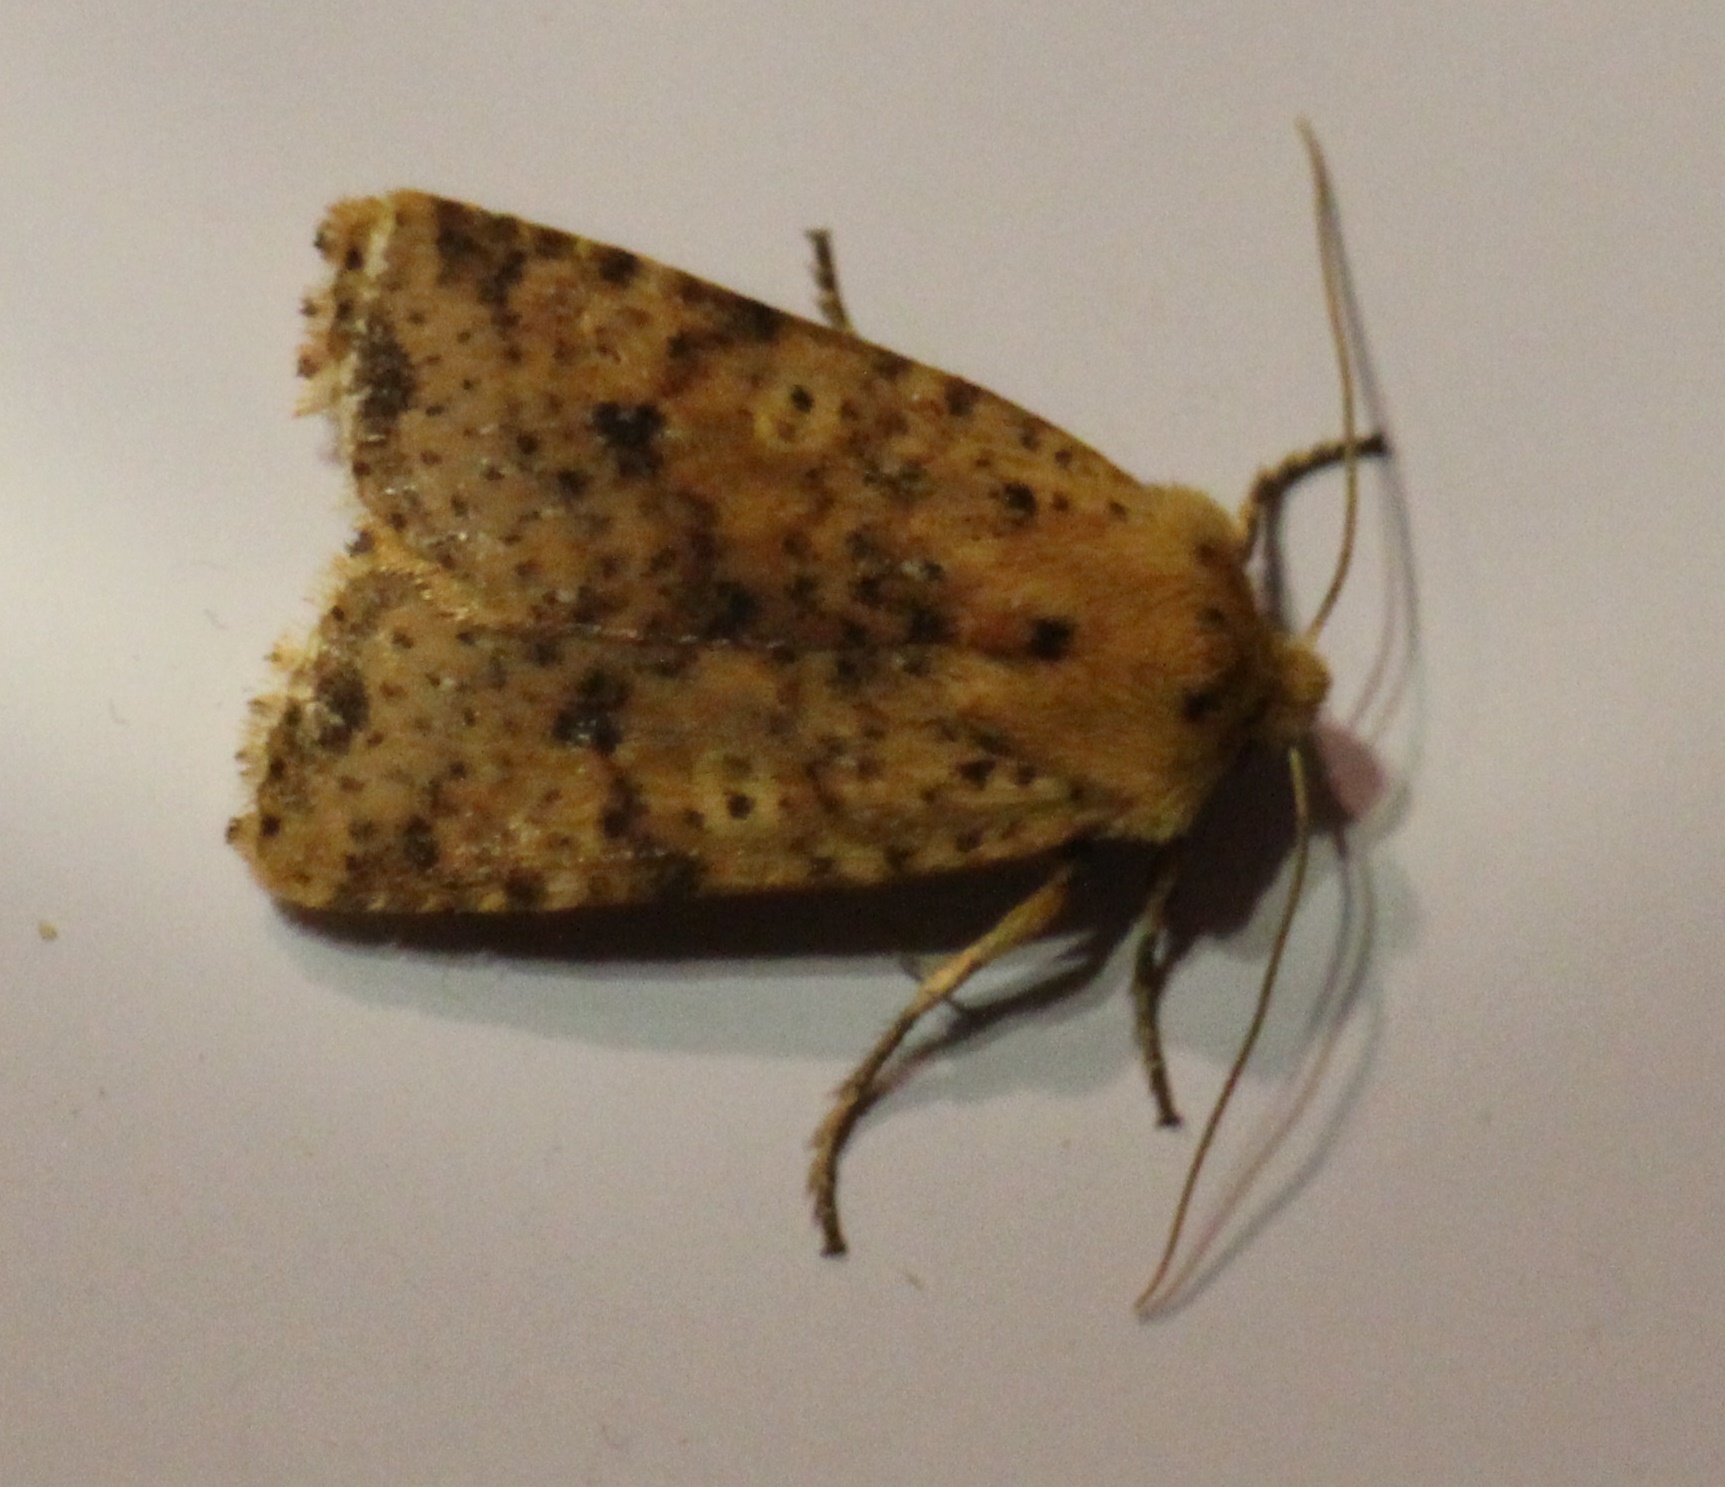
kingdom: Animalia
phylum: Arthropoda
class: Insecta
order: Lepidoptera
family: Noctuidae
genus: Conistra
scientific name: Conistra rubiginea
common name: Dotted chestnut
